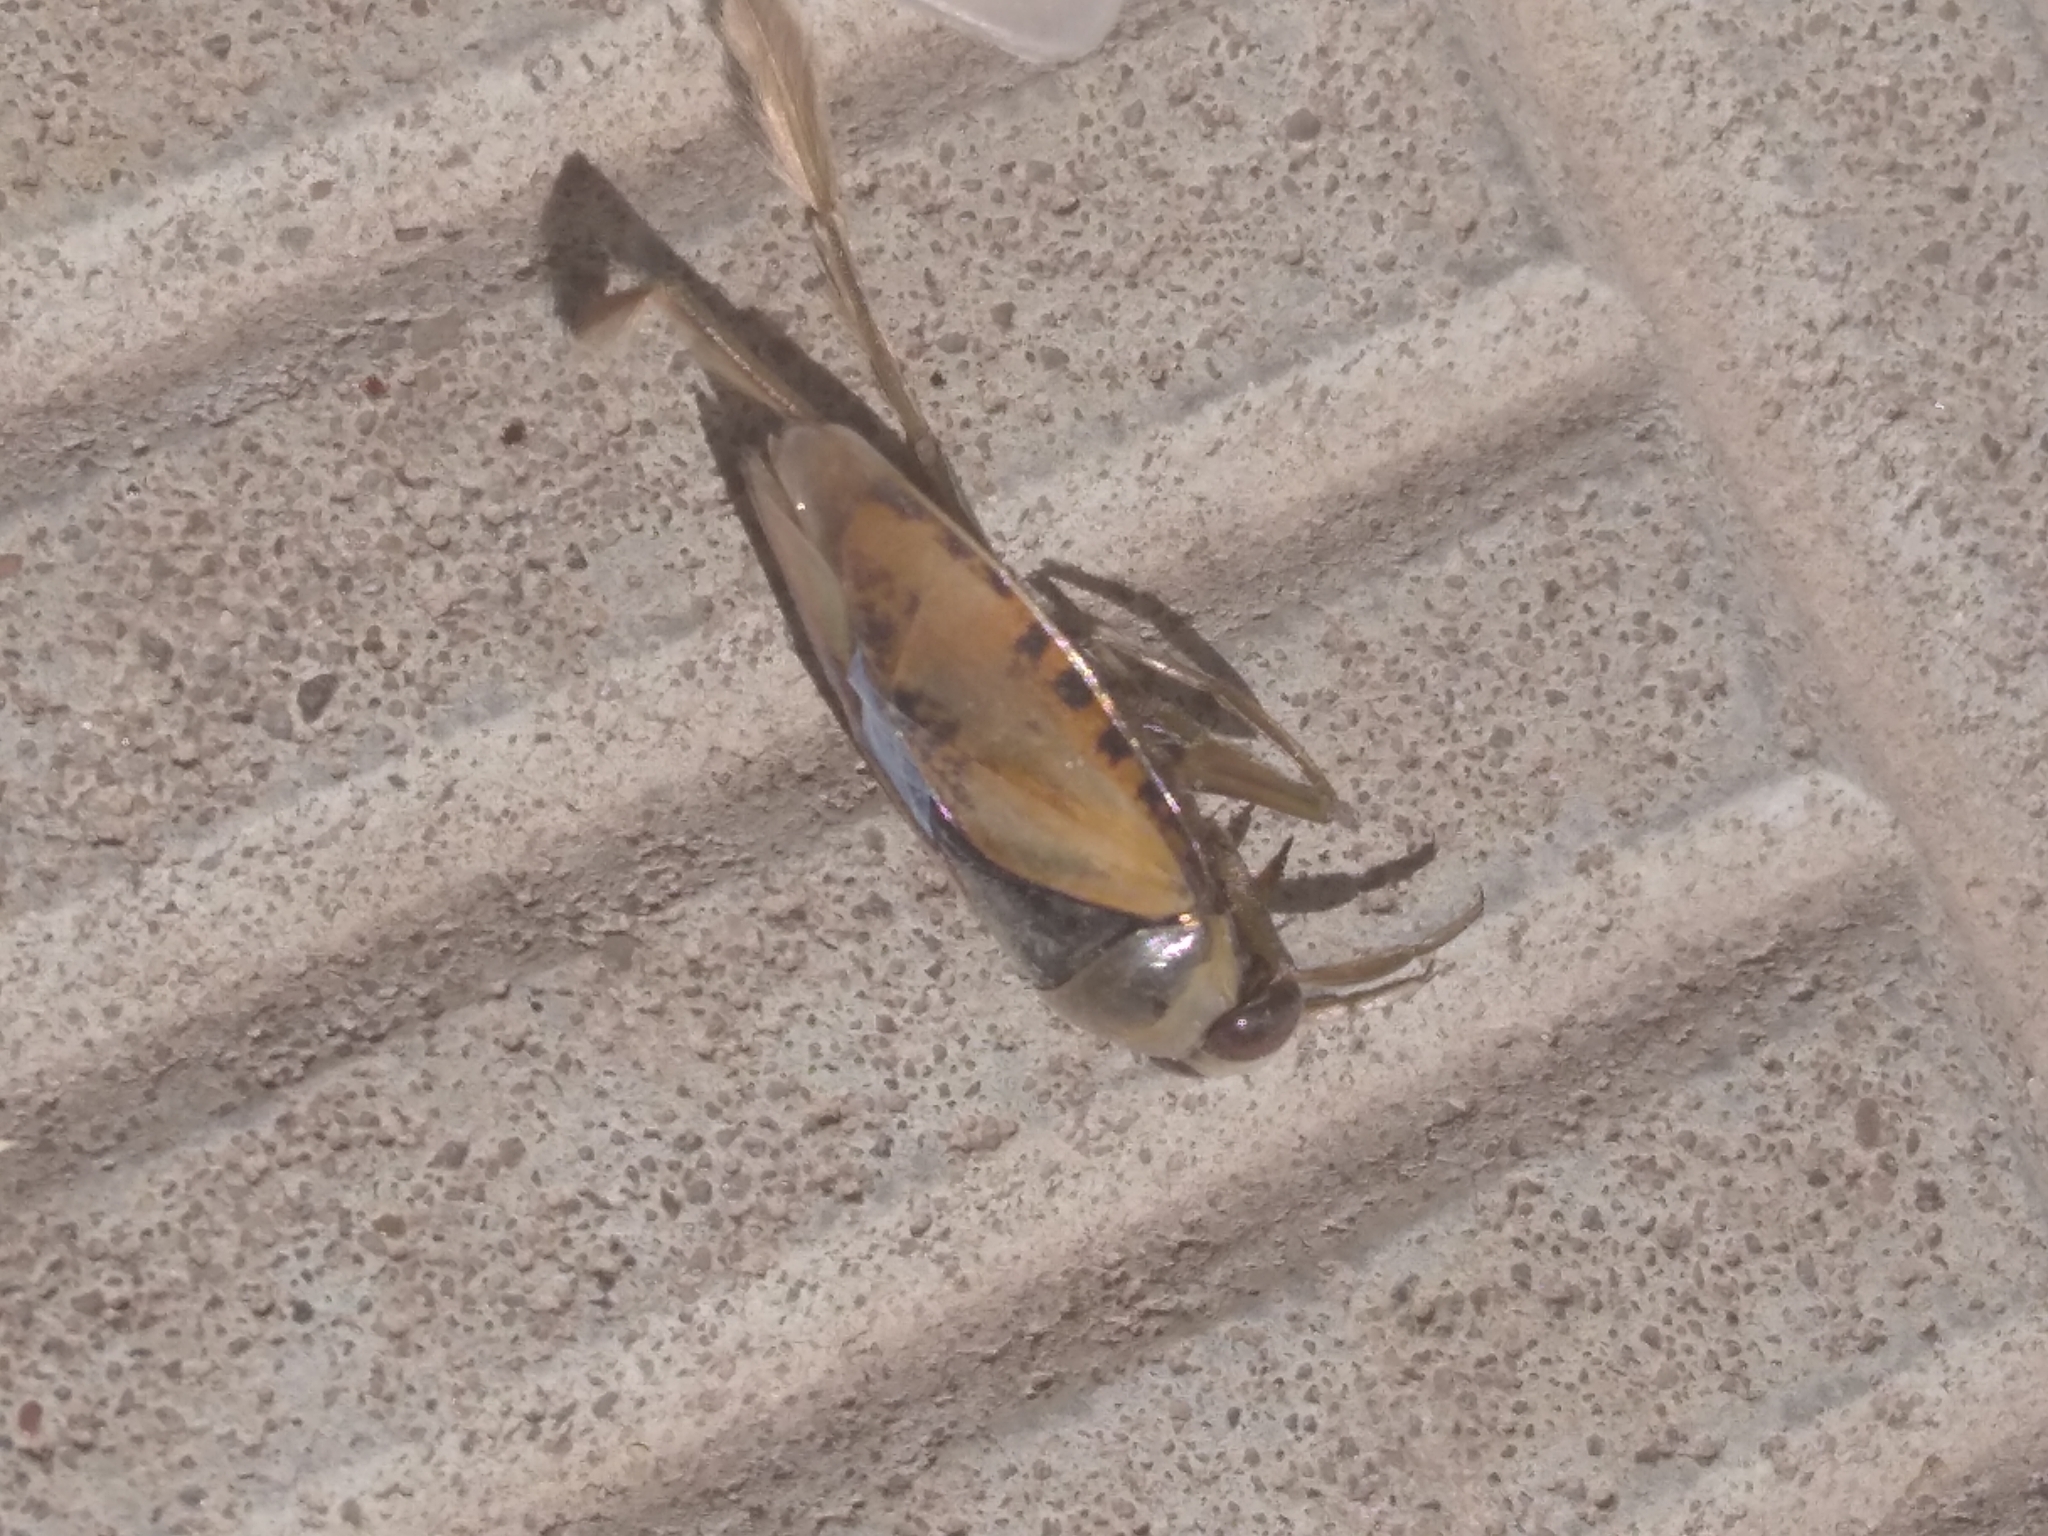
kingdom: Animalia
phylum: Arthropoda
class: Insecta
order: Hemiptera
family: Notonectidae
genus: Notonecta
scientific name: Notonecta glauca
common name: Common water-boatman
